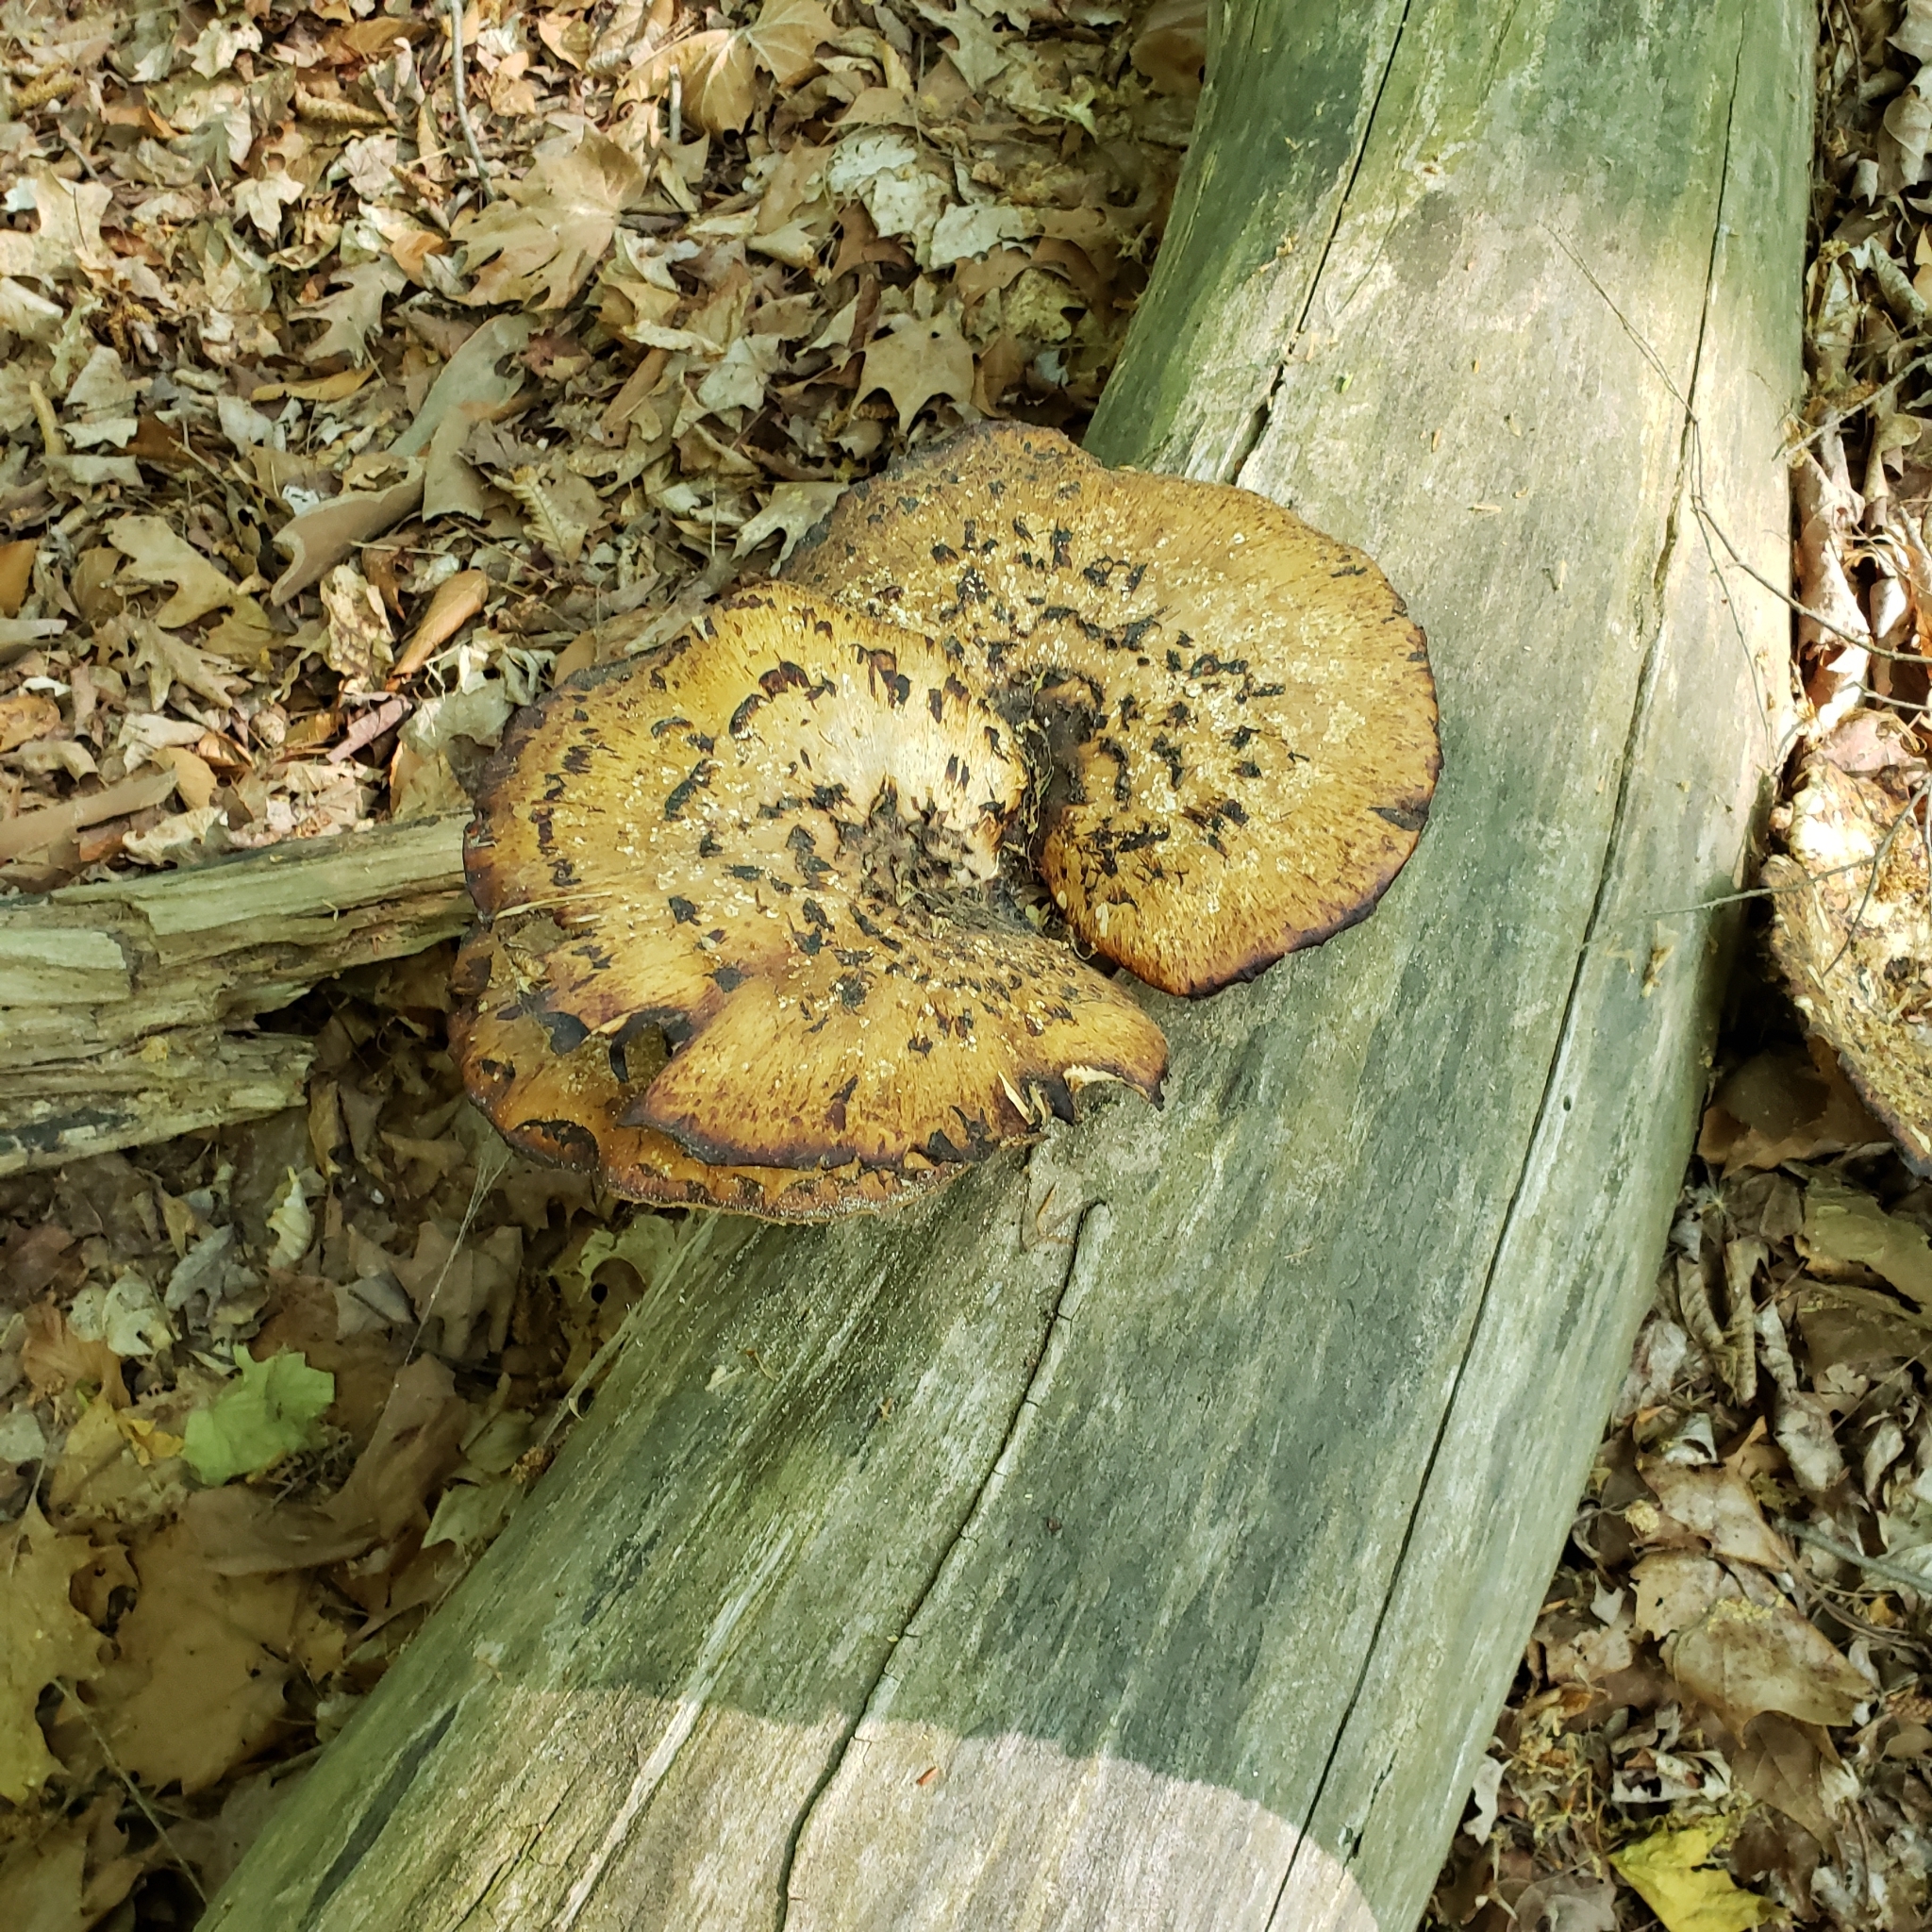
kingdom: Fungi
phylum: Basidiomycota
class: Agaricomycetes
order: Polyporales
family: Polyporaceae
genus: Cerioporus
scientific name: Cerioporus squamosus
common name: Dryad's saddle
